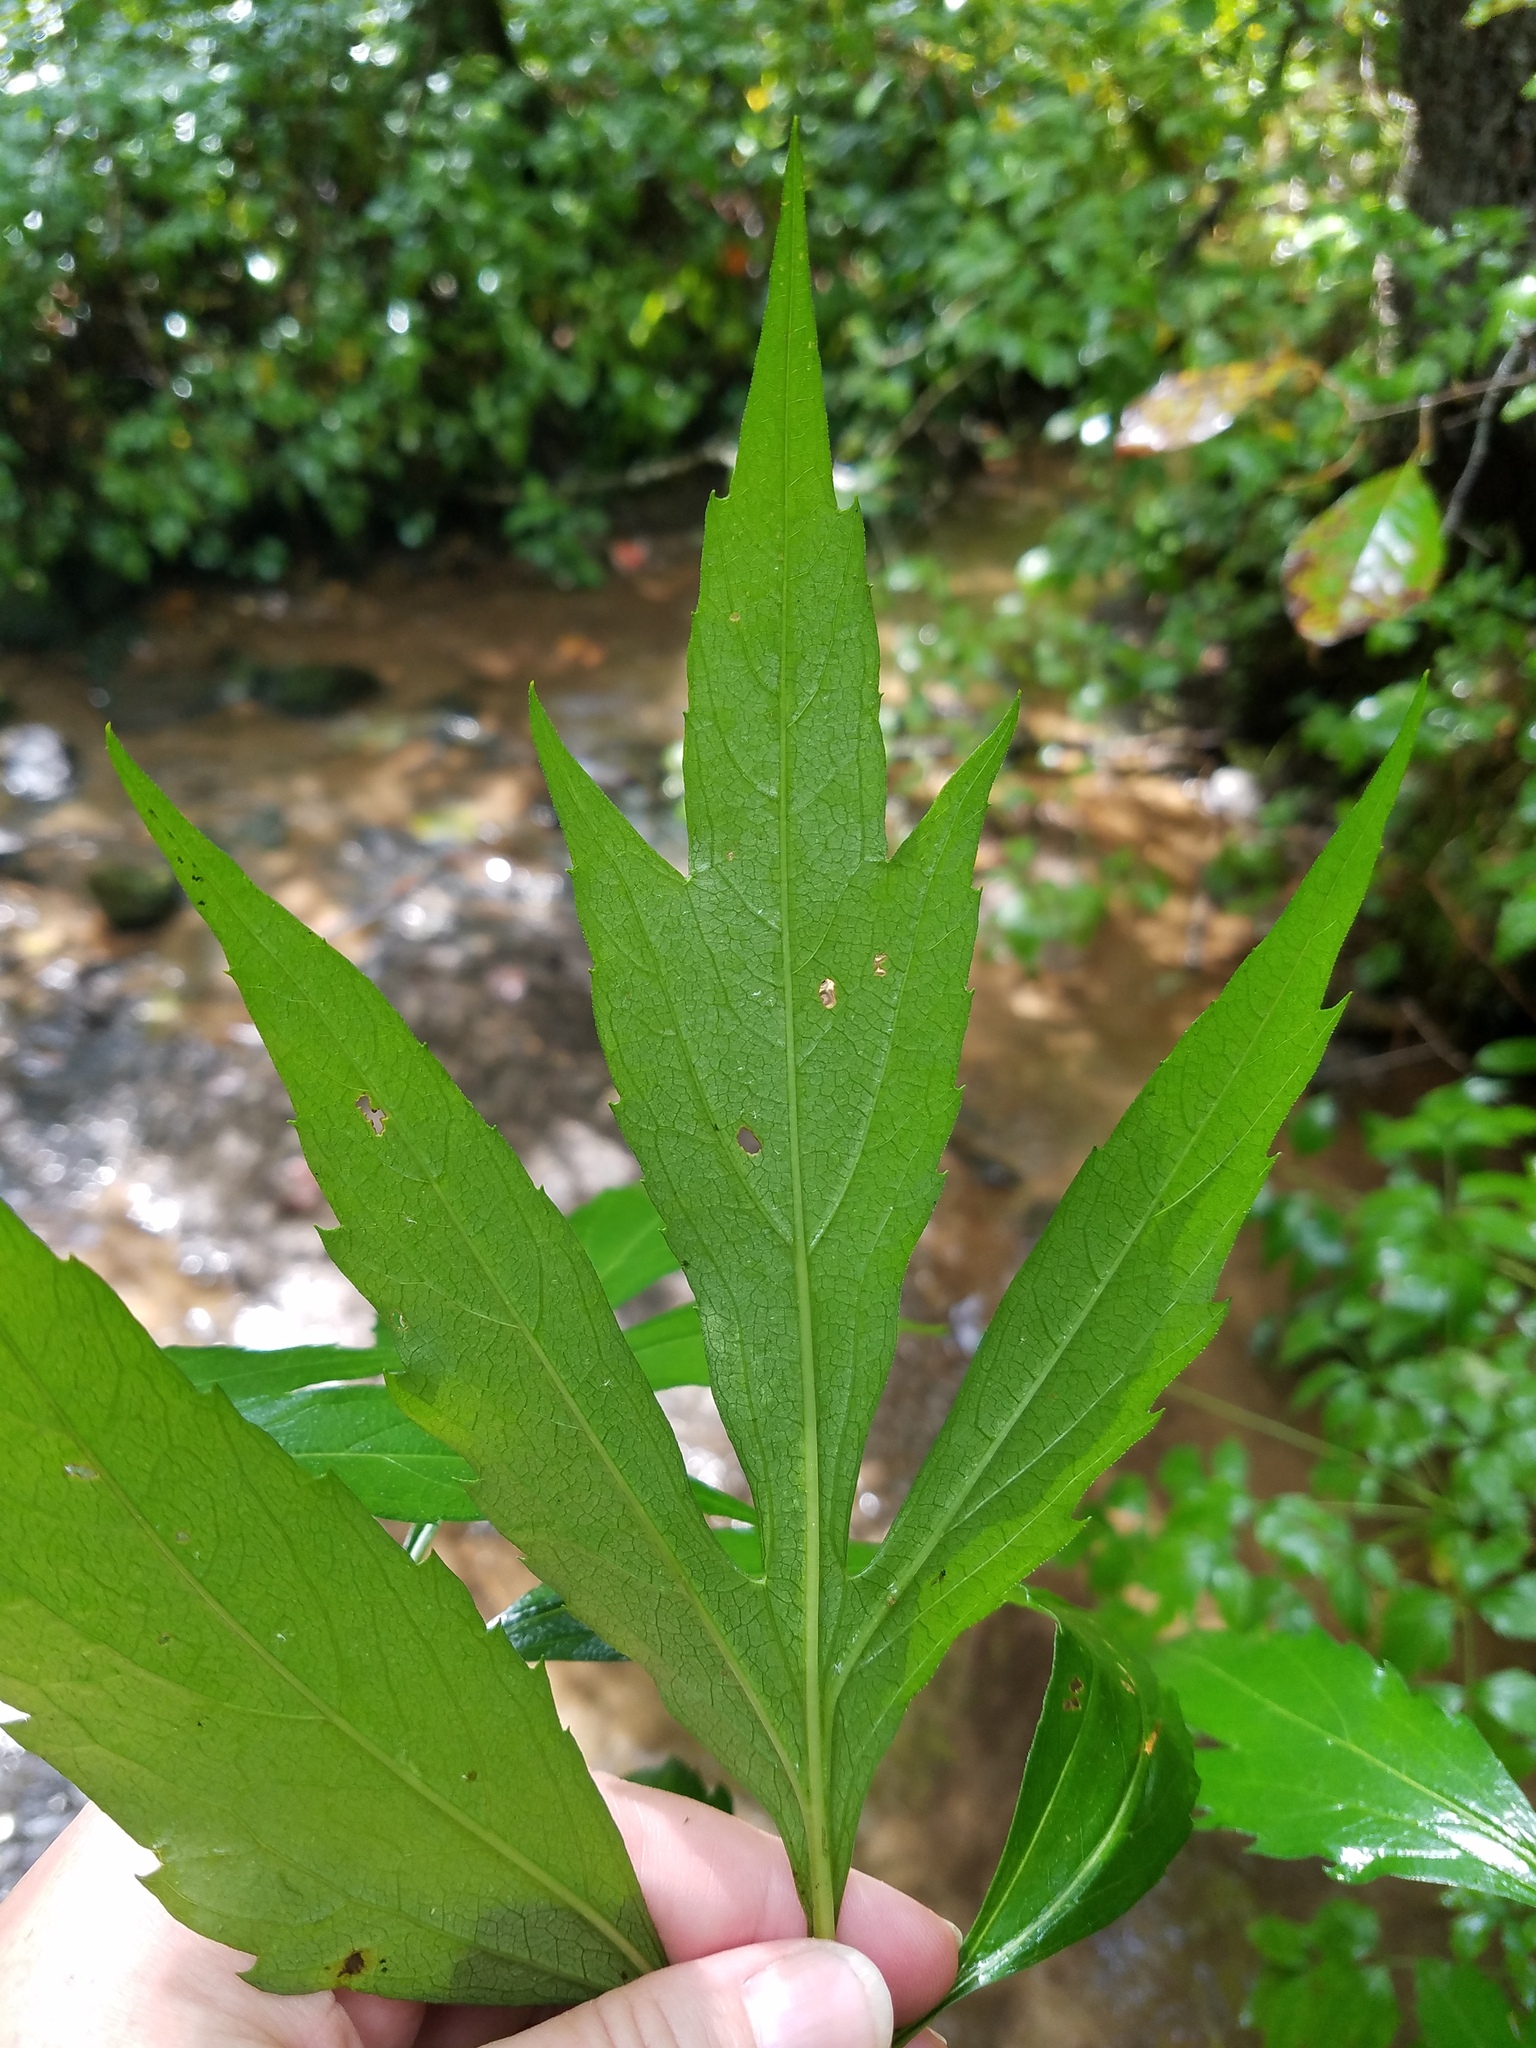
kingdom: Plantae
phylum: Tracheophyta
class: Magnoliopsida
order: Asterales
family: Asteraceae
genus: Rudbeckia
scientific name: Rudbeckia laciniata
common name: Coneflower
